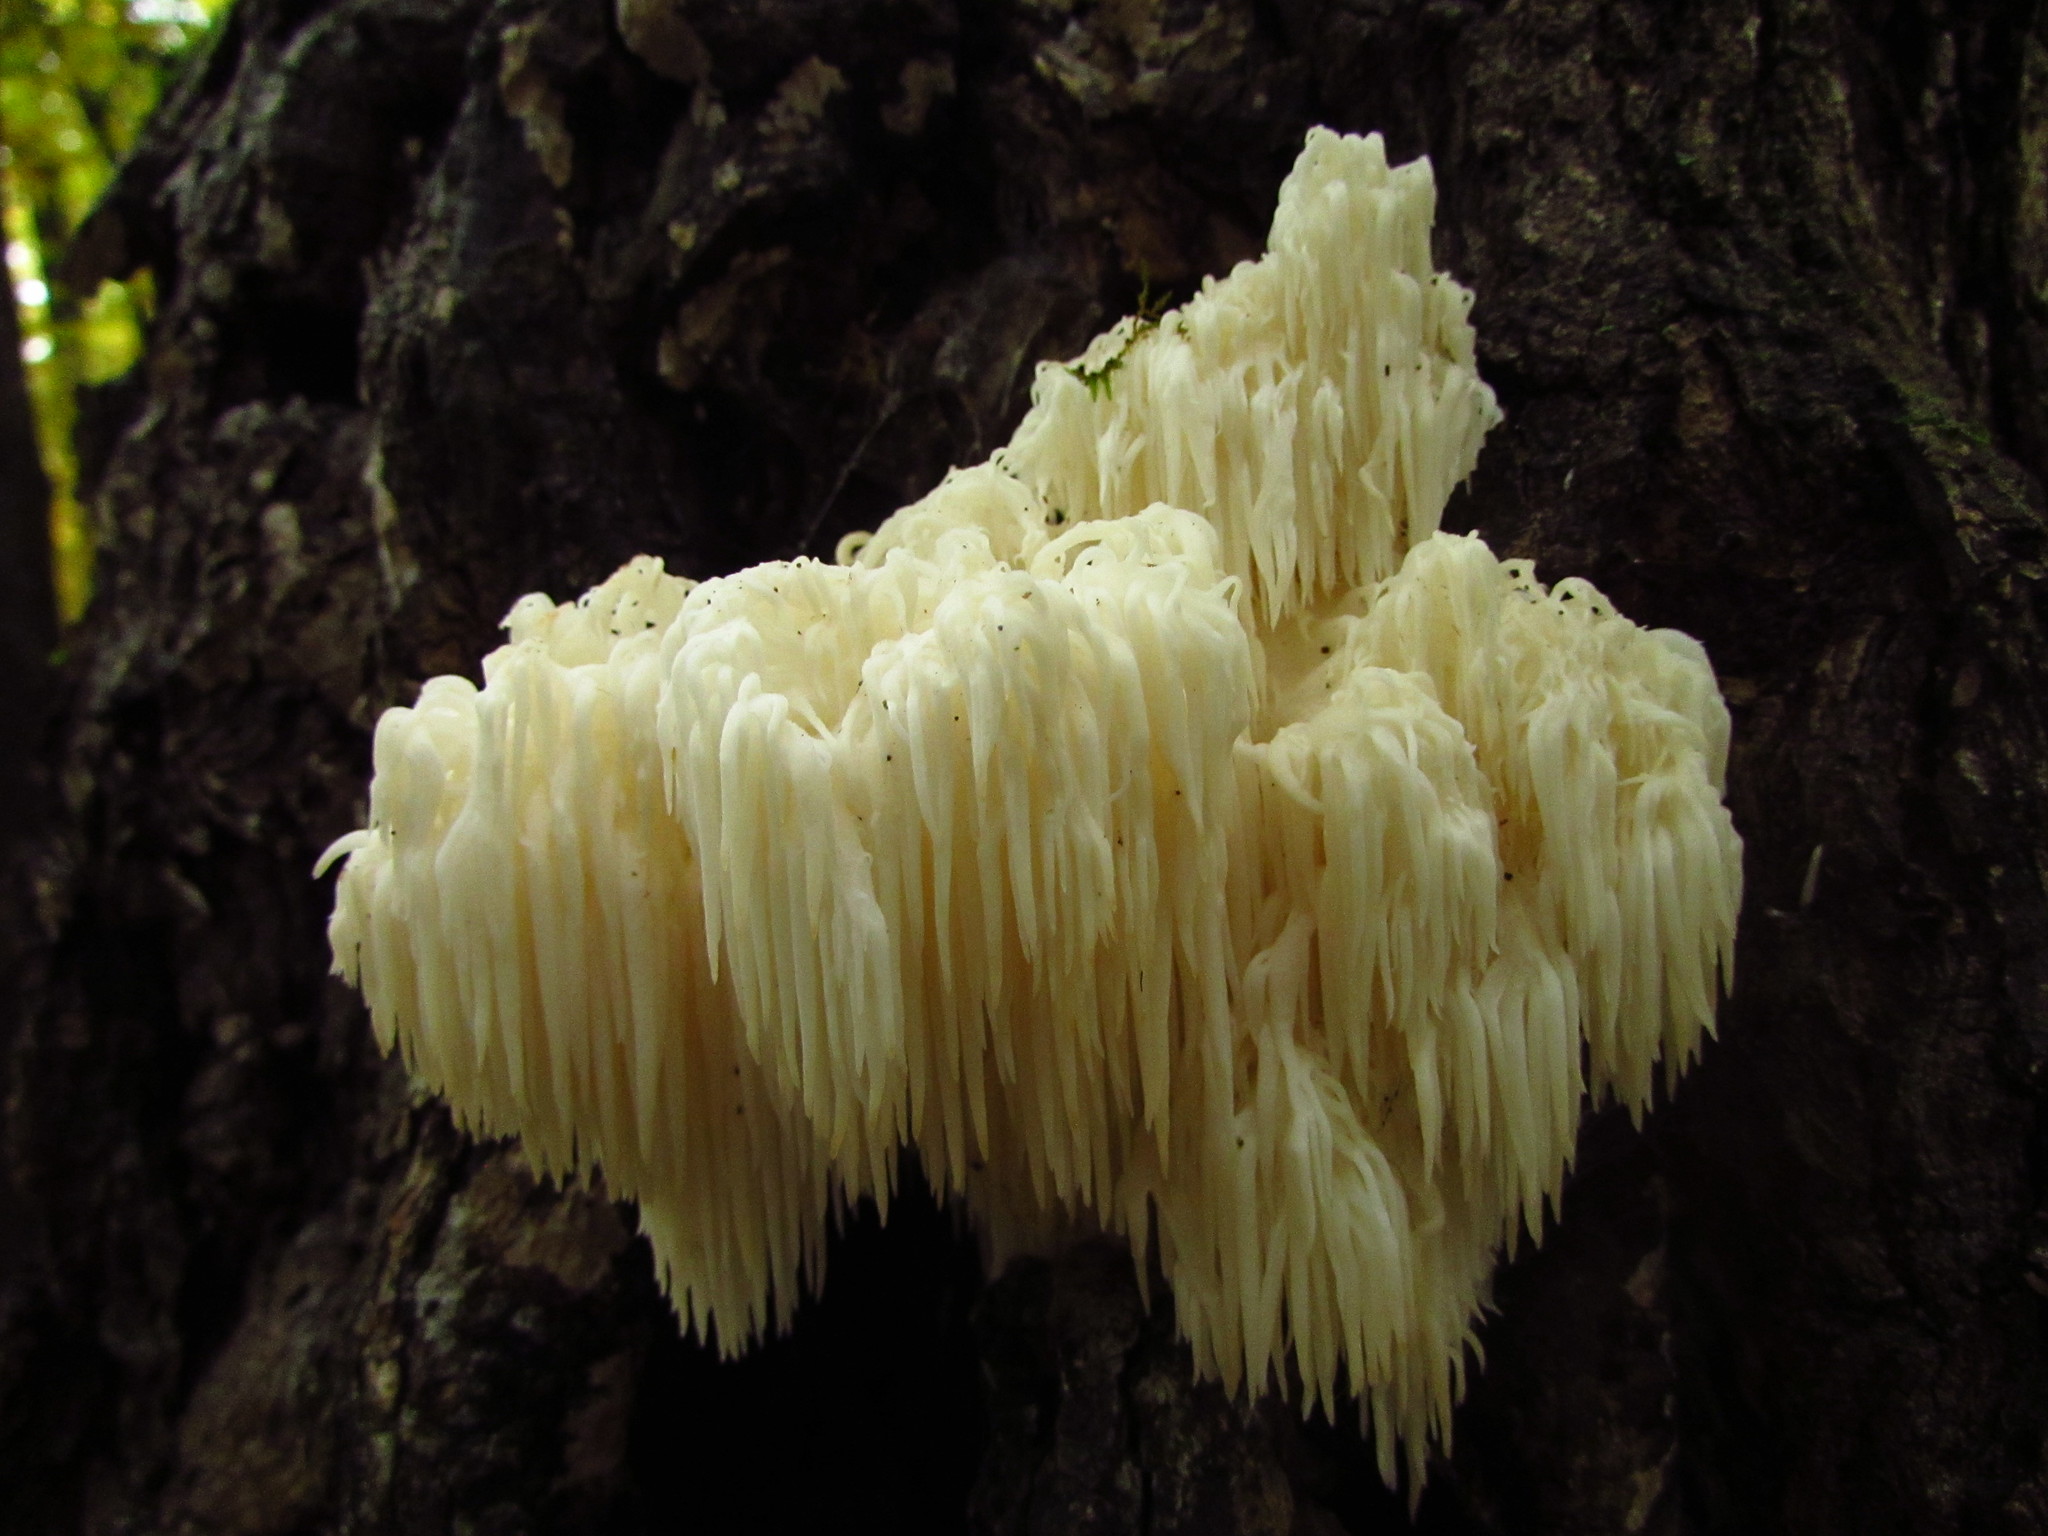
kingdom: Fungi
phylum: Basidiomycota
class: Agaricomycetes
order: Russulales
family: Hericiaceae
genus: Hericium
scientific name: Hericium americanum
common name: Bear's head tooth
